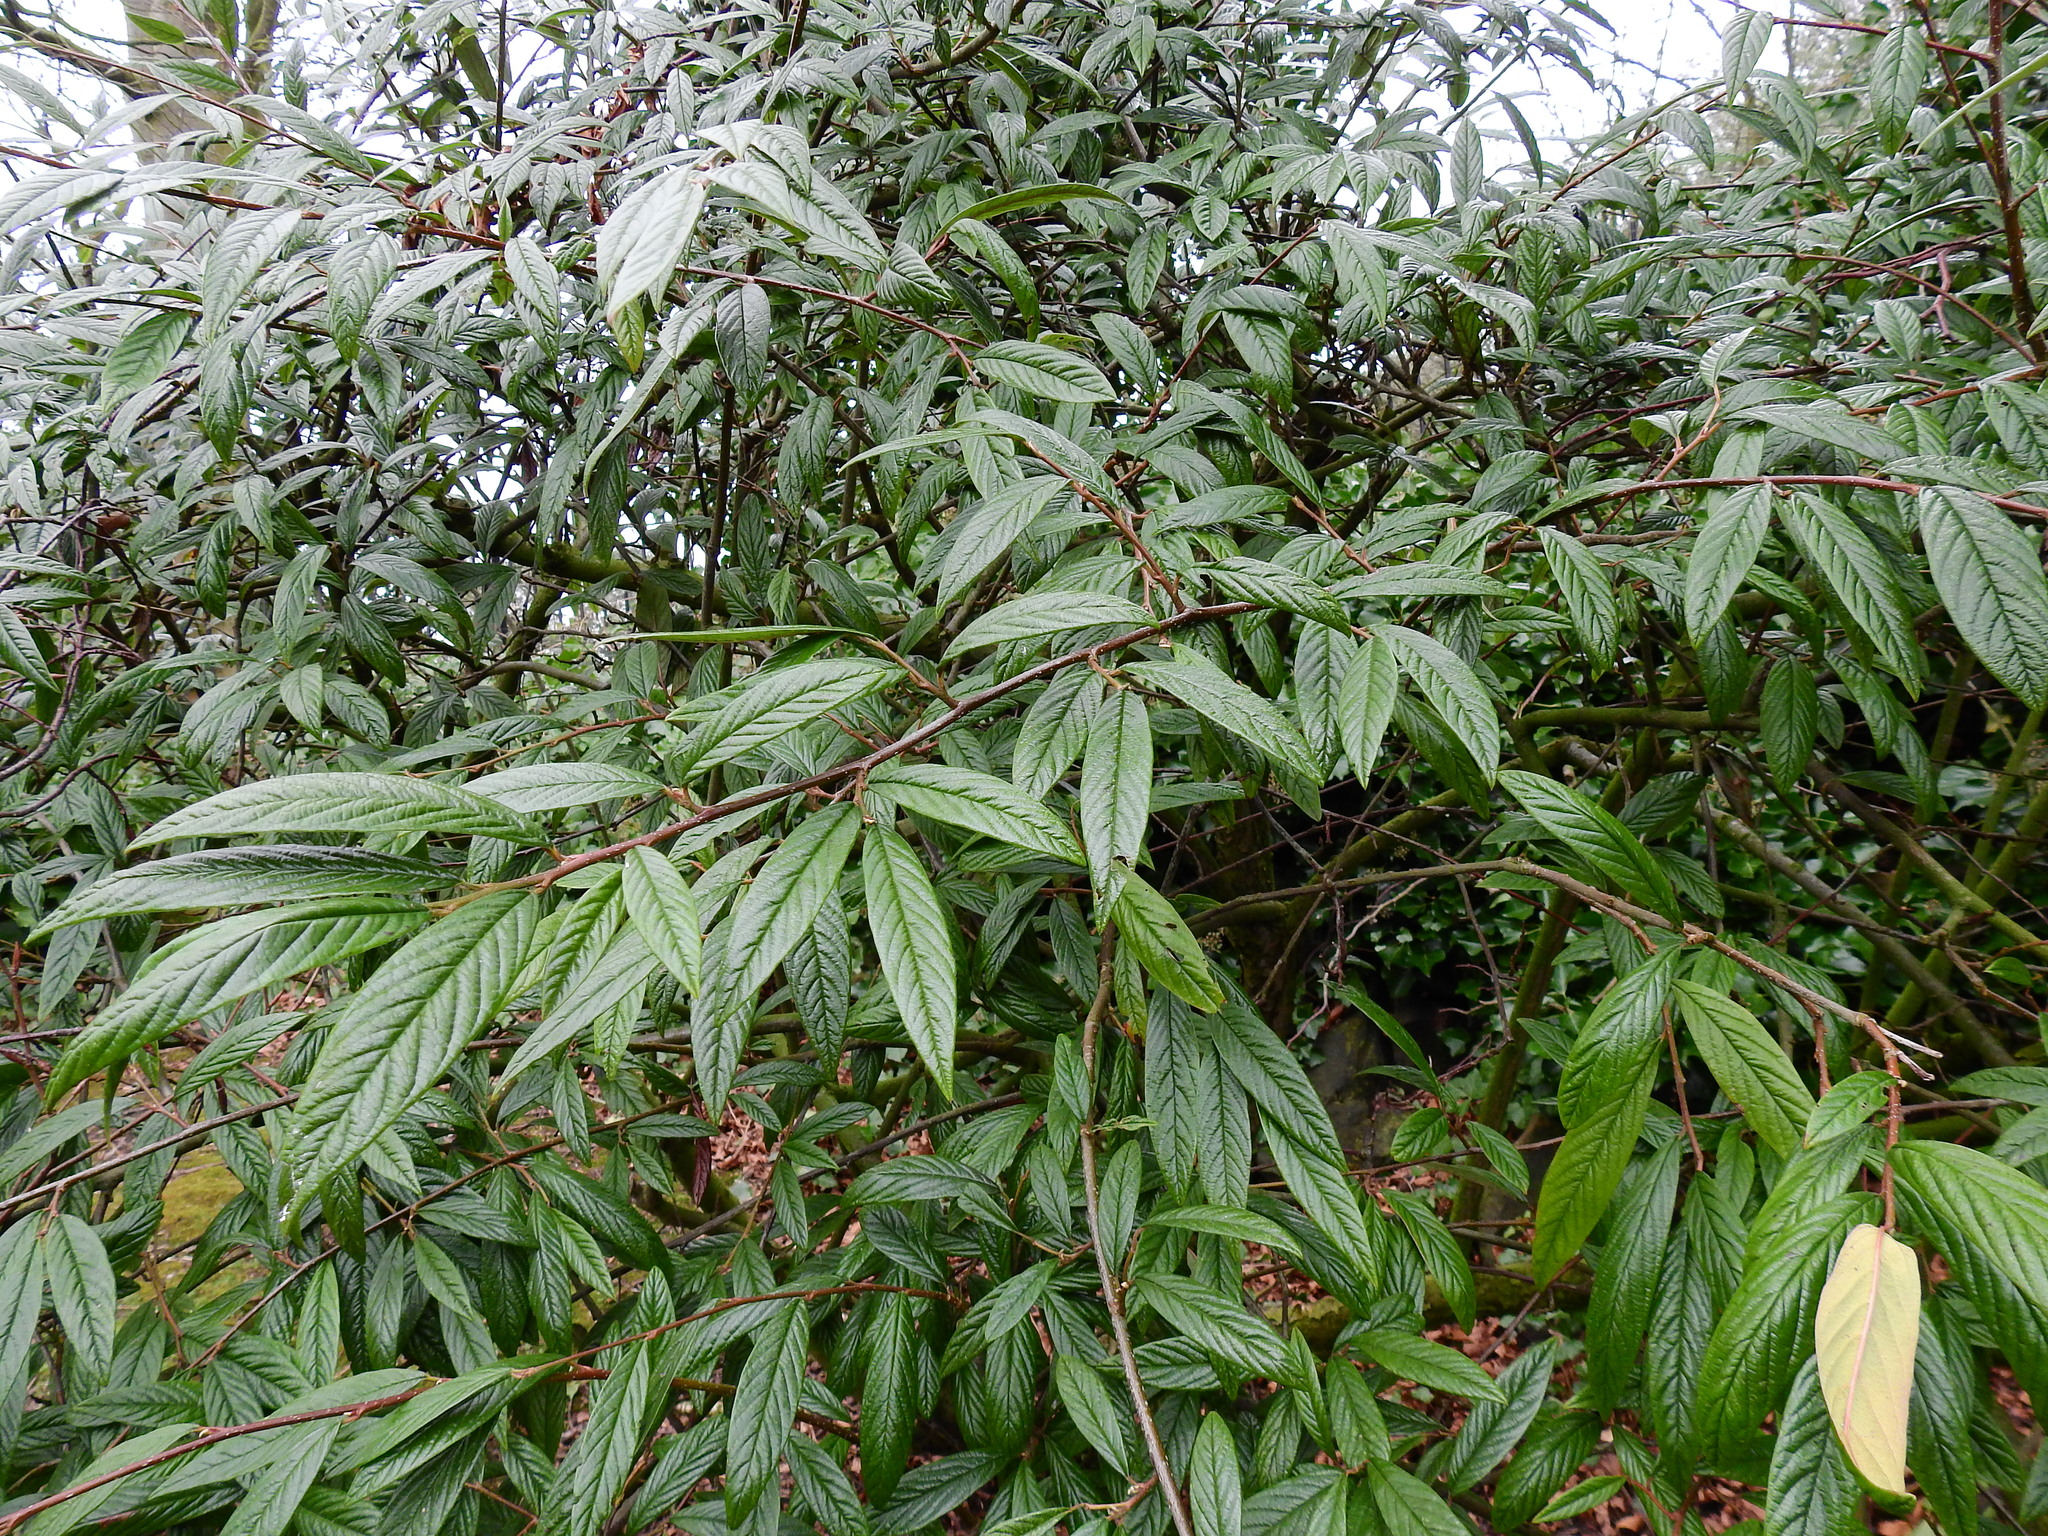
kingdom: Plantae
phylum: Tracheophyta
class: Magnoliopsida
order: Rosales
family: Rosaceae
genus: Cotoneaster
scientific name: Cotoneaster salicifolius
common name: Willow-leaved cotoneaster
